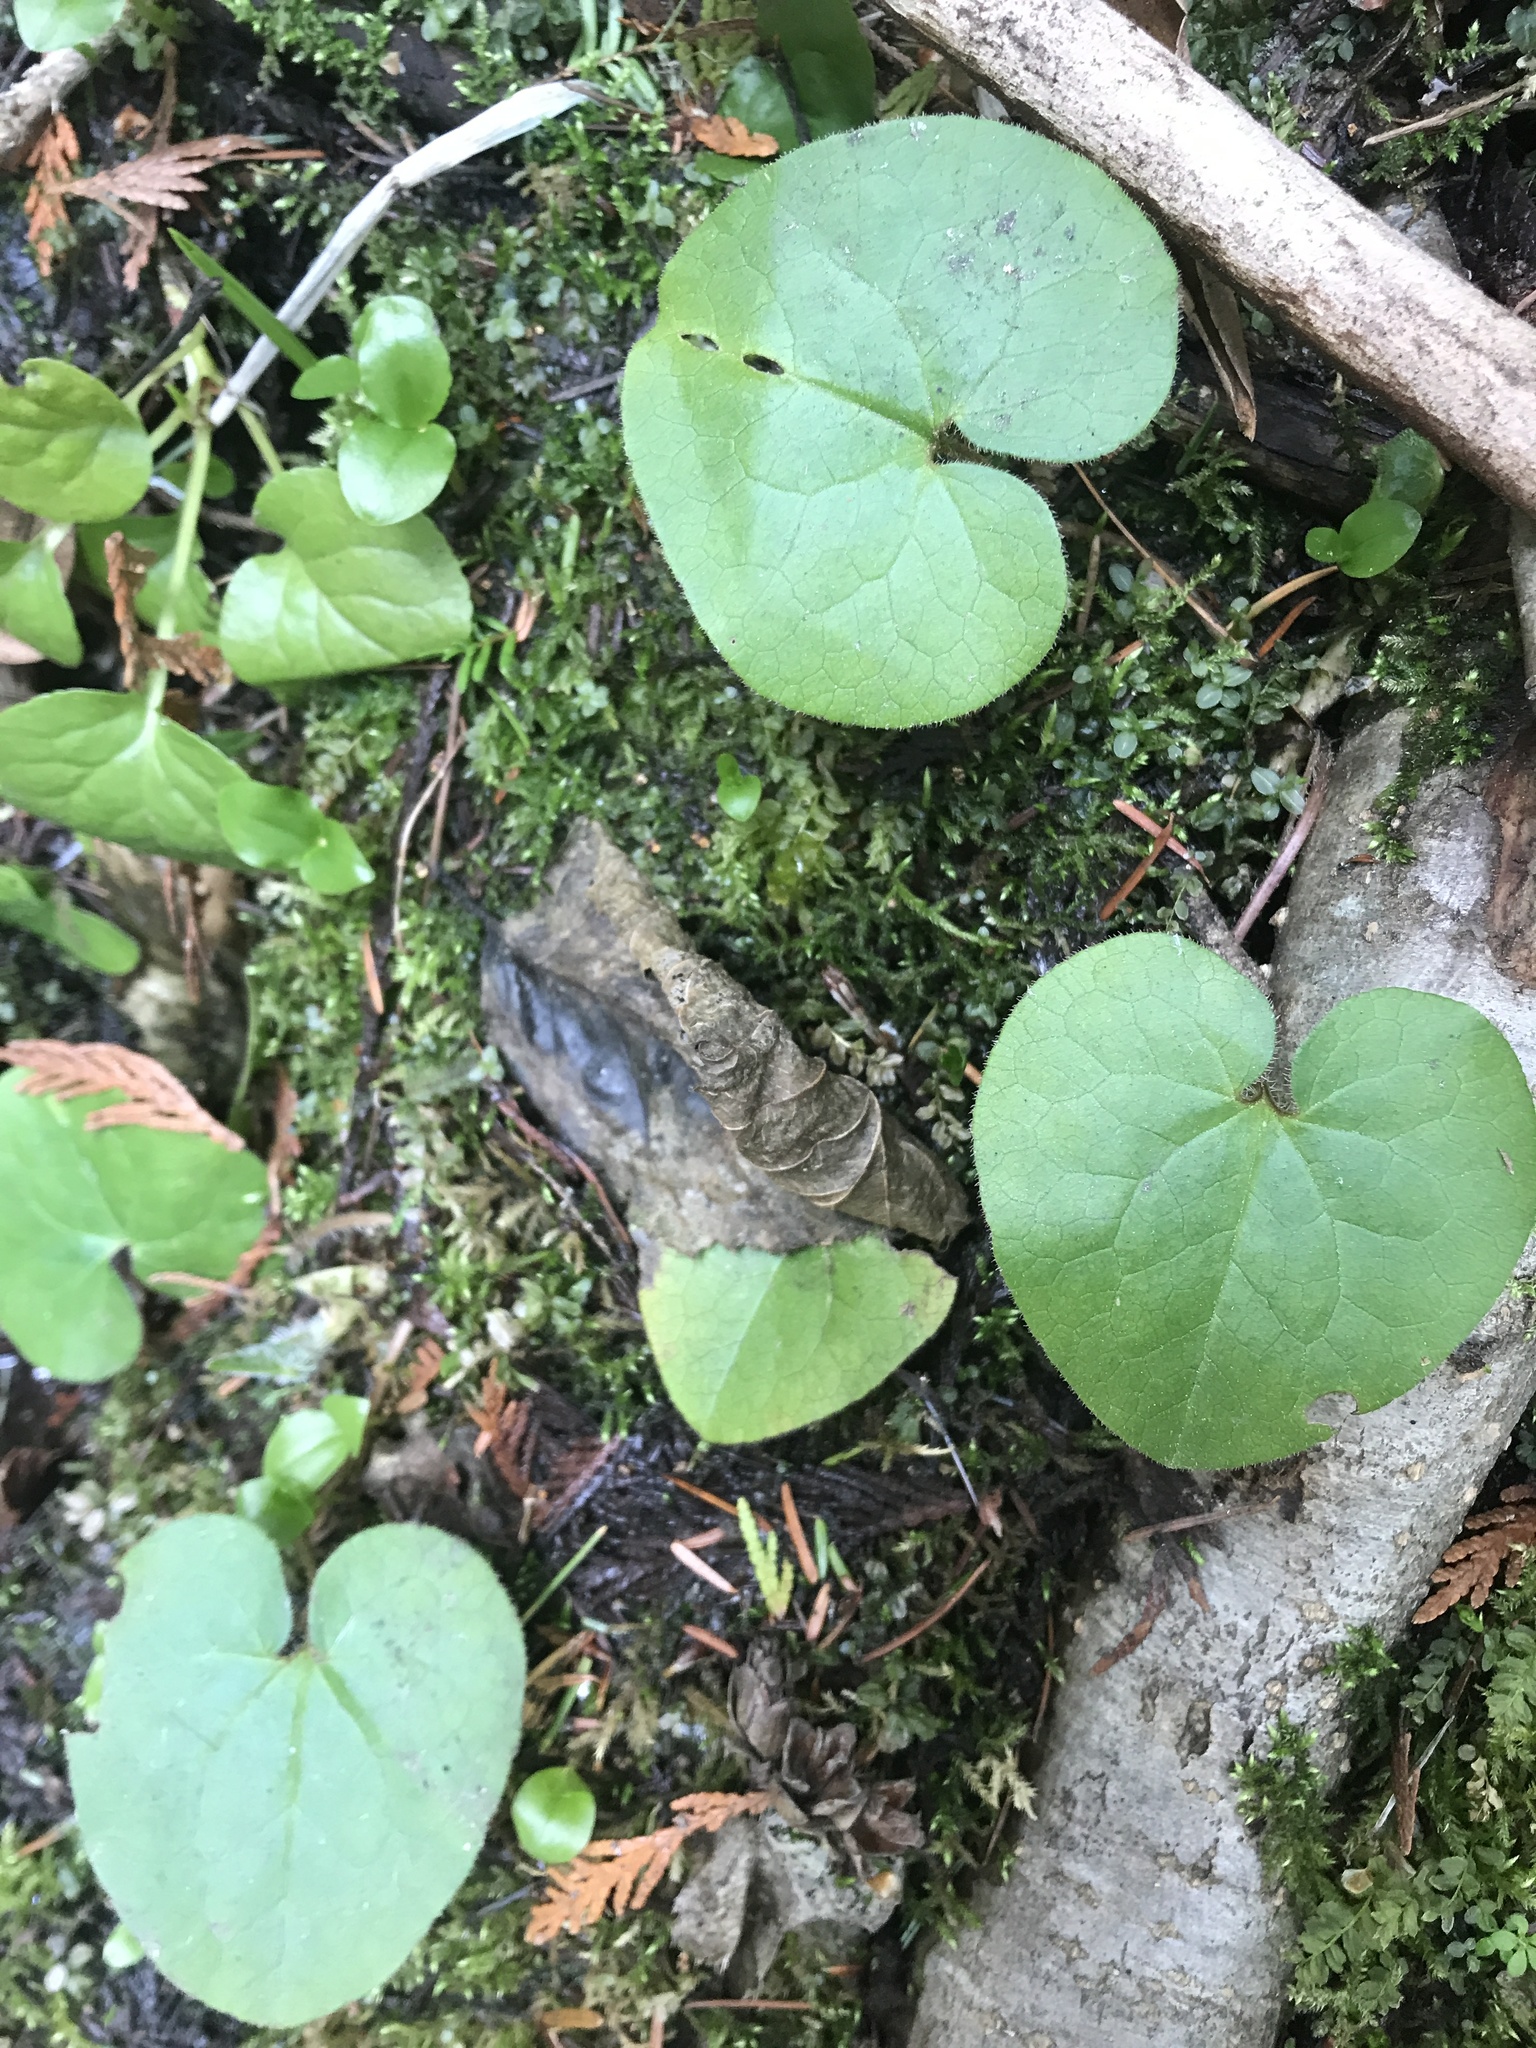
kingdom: Plantae
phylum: Tracheophyta
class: Magnoliopsida
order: Piperales
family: Aristolochiaceae
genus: Asarum
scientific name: Asarum caudatum
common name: Wild ginger
